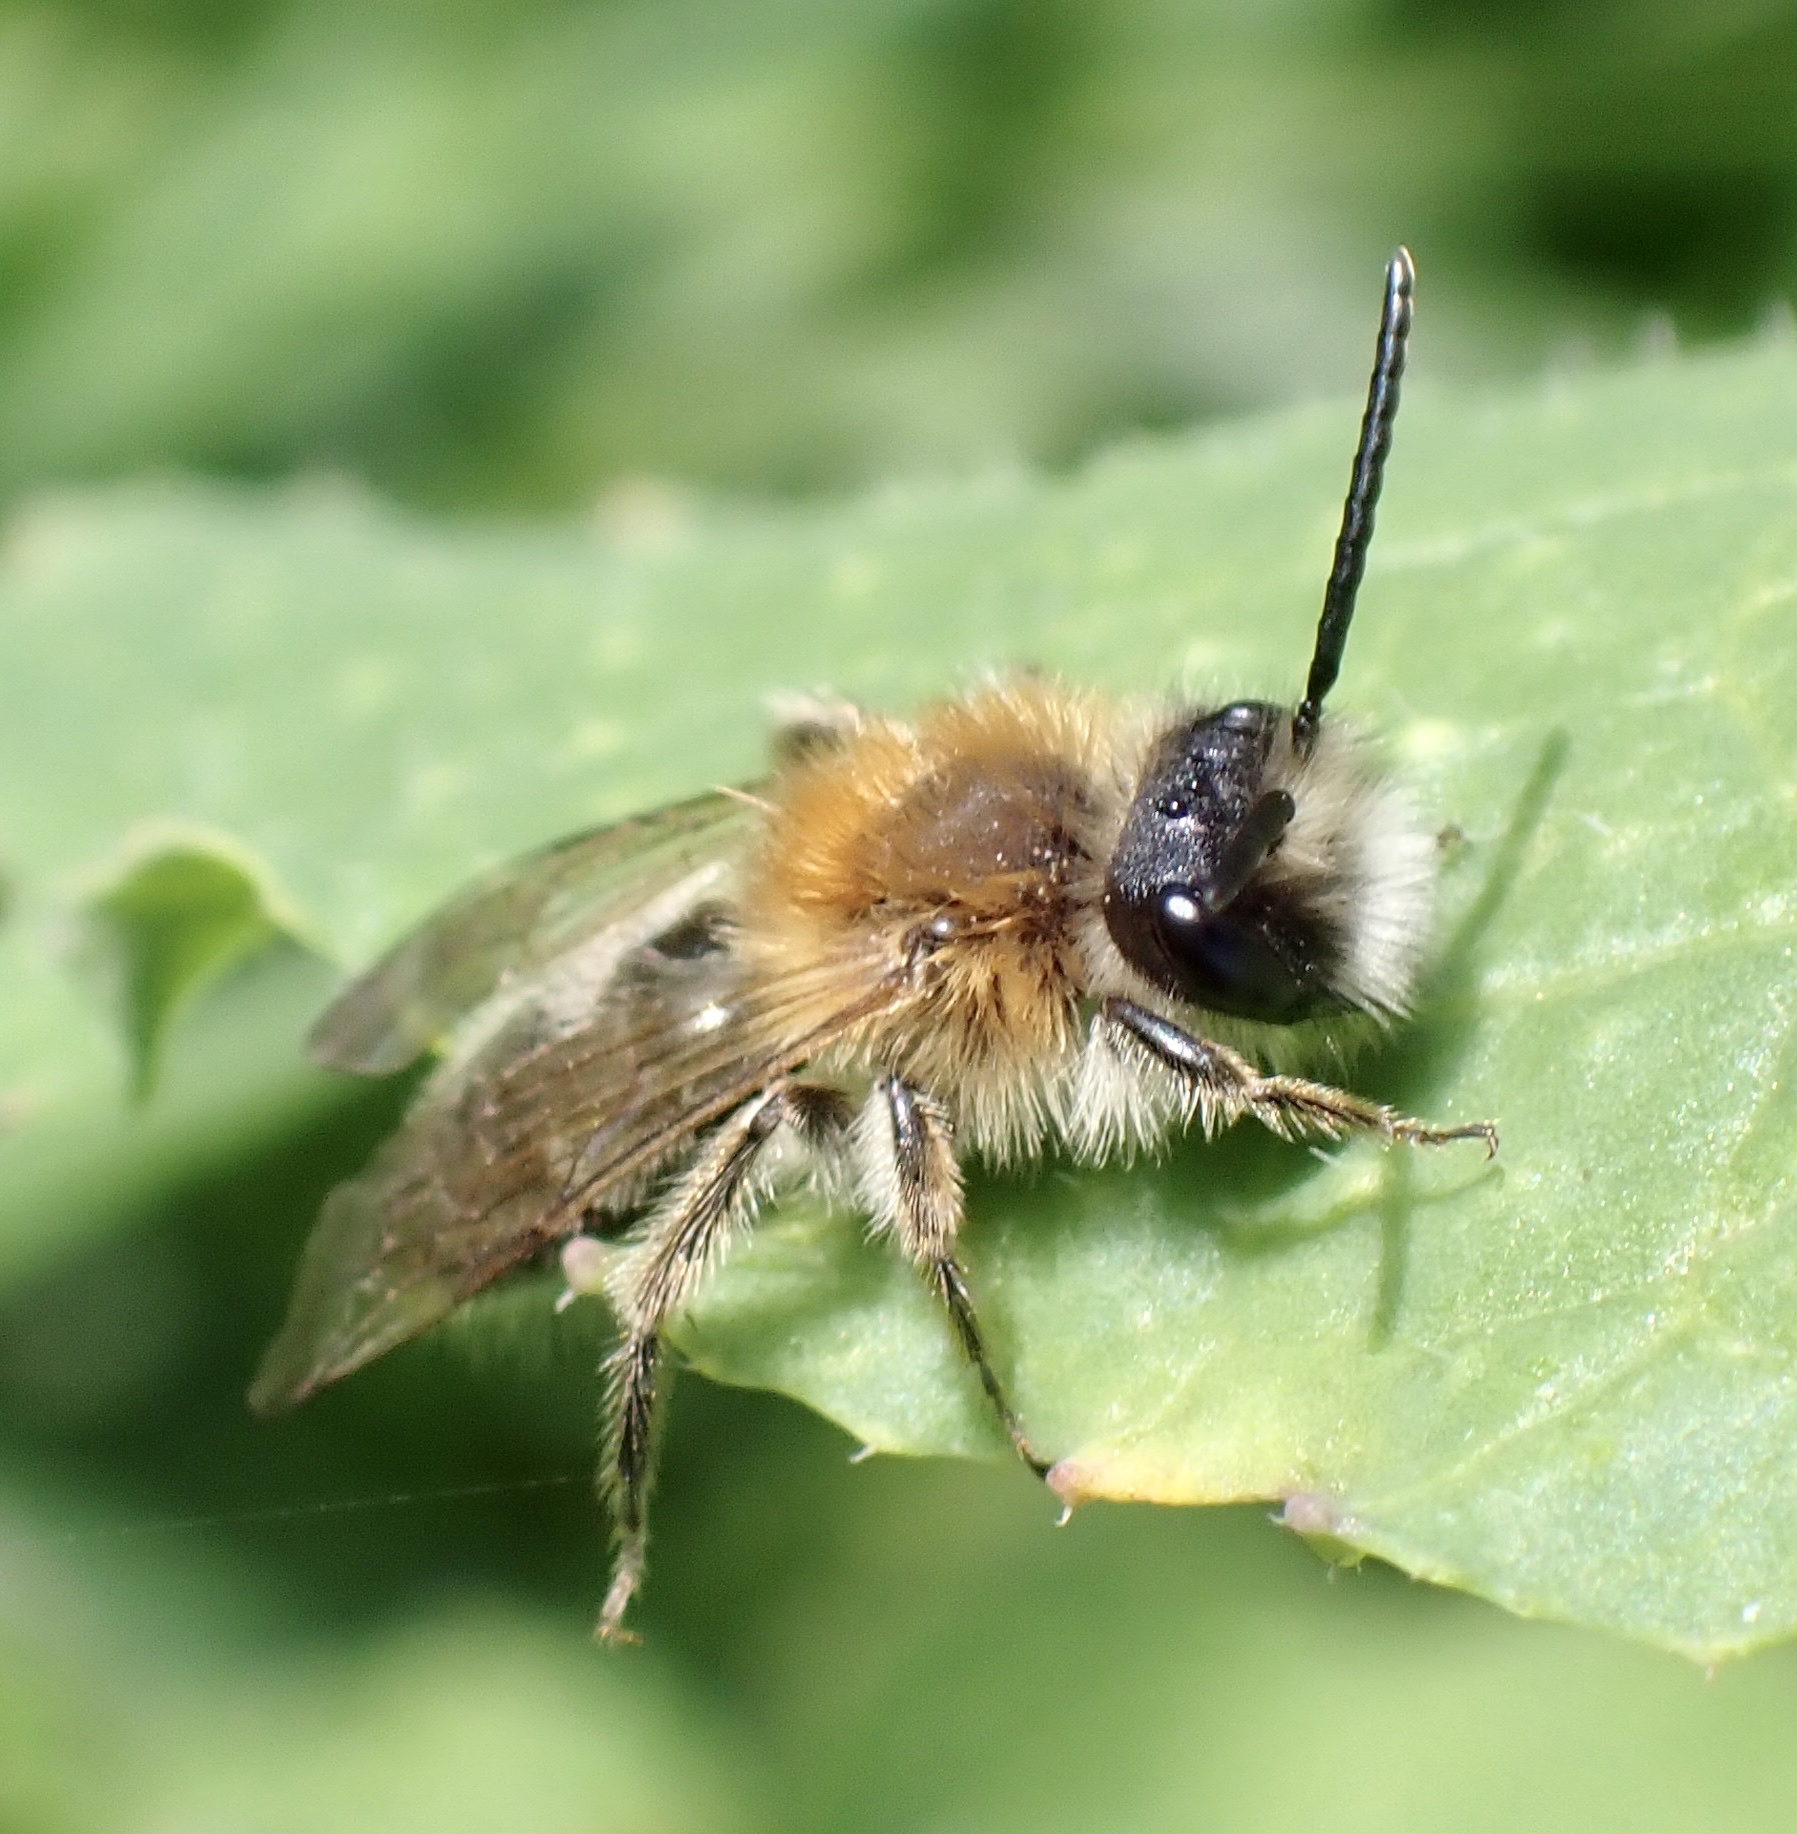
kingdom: Animalia
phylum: Arthropoda
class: Insecta
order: Hymenoptera
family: Andrenidae
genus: Andrena
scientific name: Andrena nitida
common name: Grey-patched mining bee
